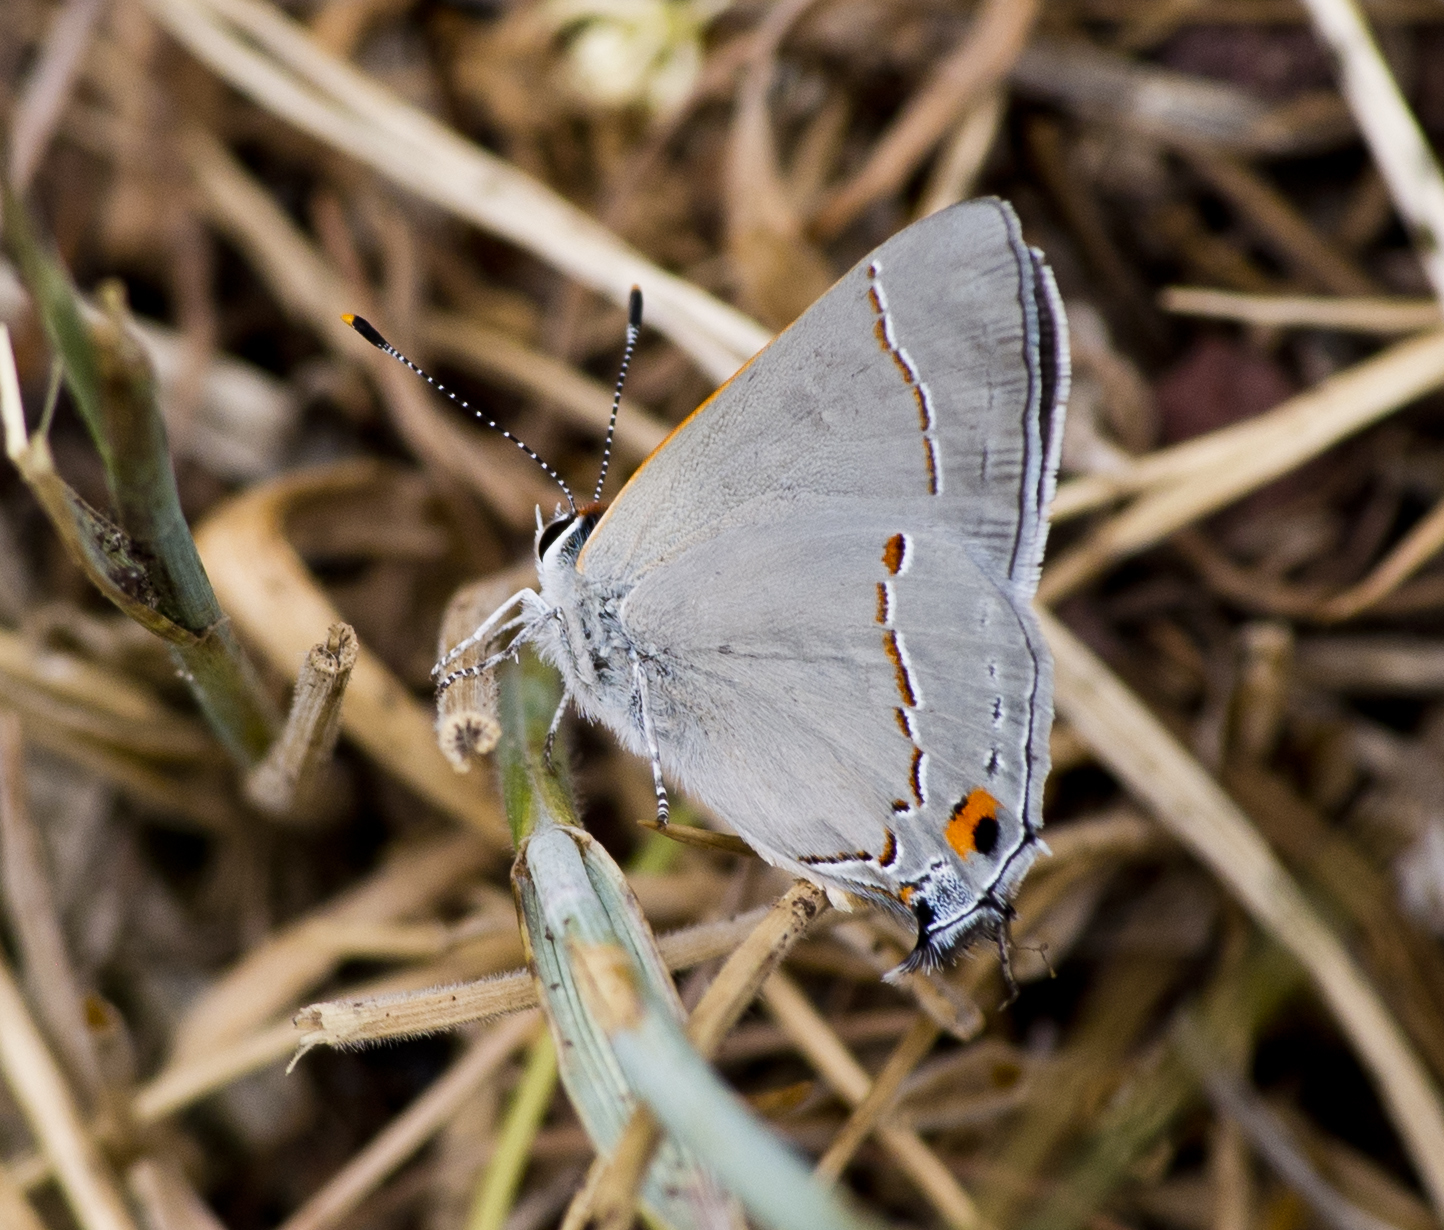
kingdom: Animalia
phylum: Arthropoda
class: Insecta
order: Lepidoptera
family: Lycaenidae
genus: Strymon
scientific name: Strymon melinus
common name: Gray hairstreak
